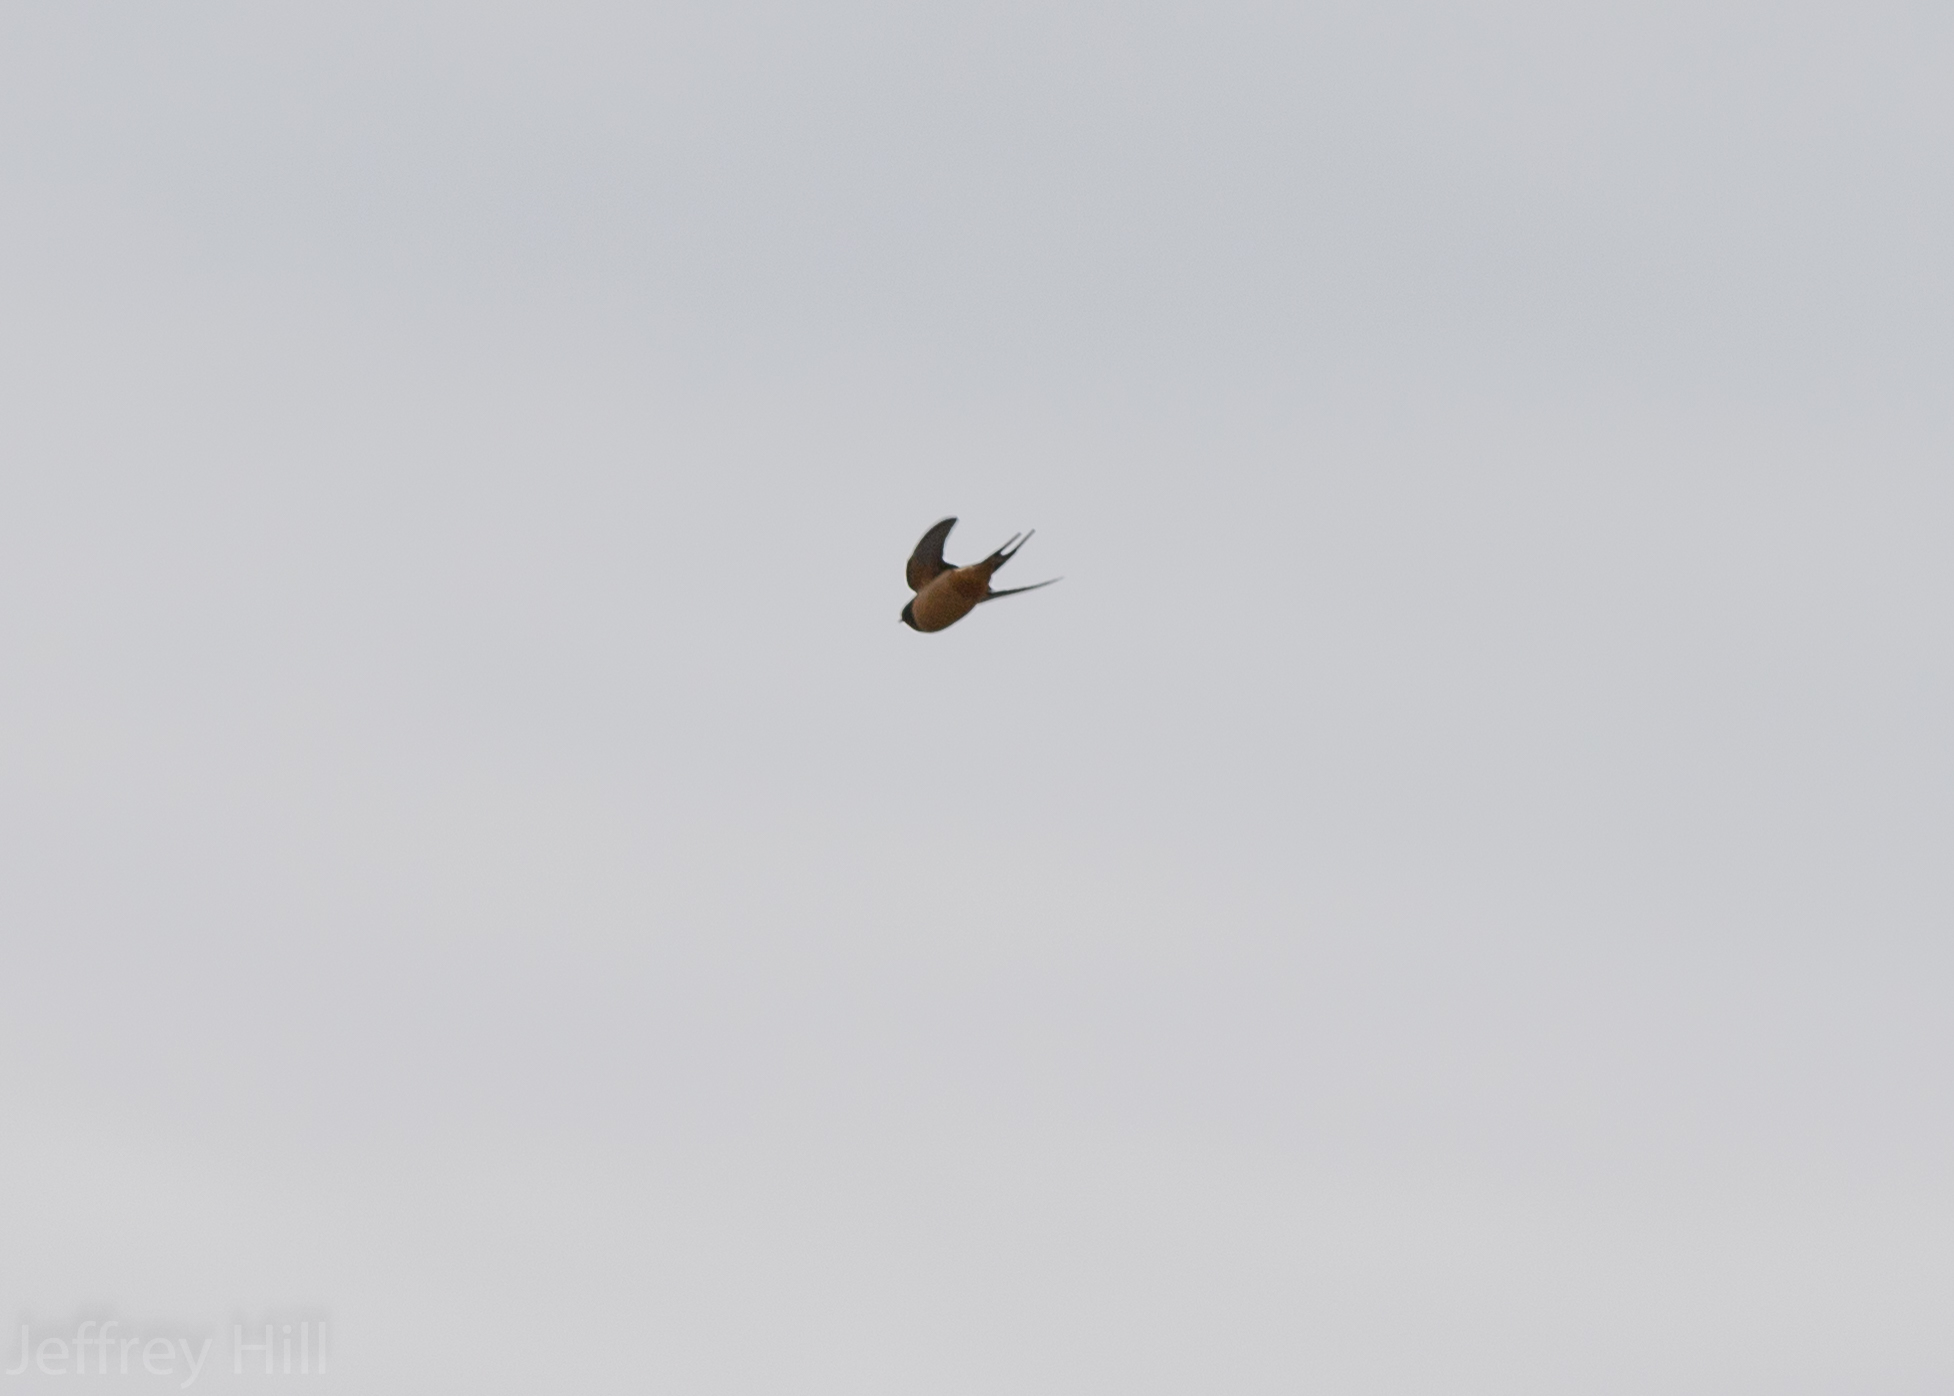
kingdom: Animalia
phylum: Chordata
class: Aves
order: Passeriformes
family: Hirundinidae
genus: Hirundo
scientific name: Hirundo rustica
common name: Barn swallow
